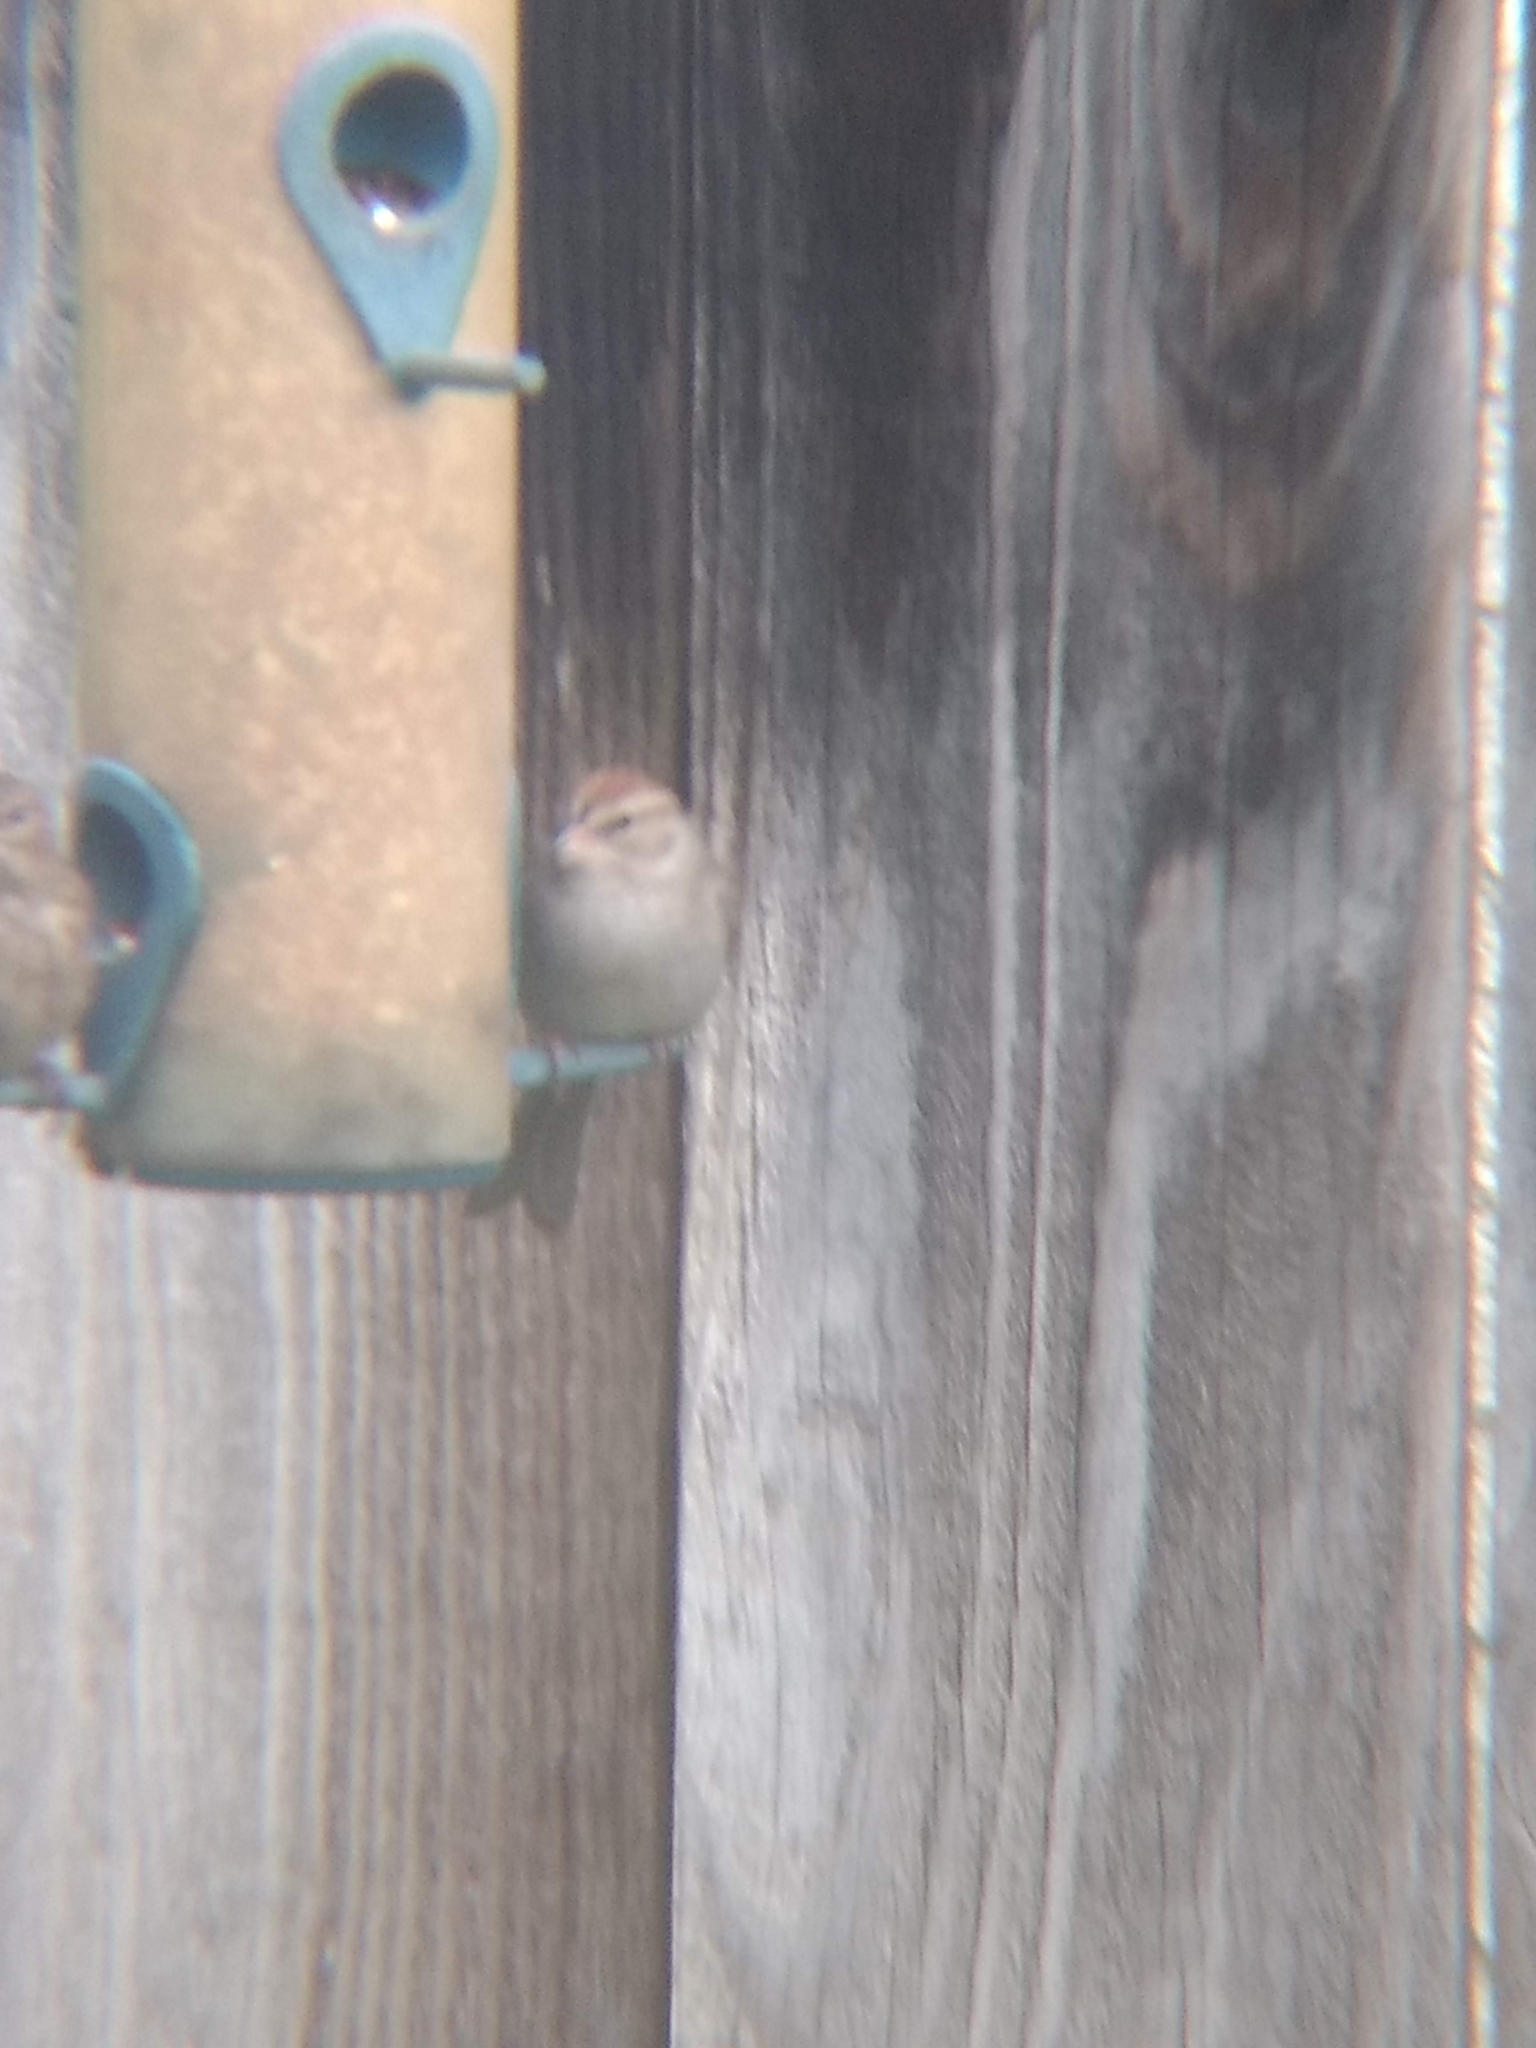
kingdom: Animalia
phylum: Chordata
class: Aves
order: Passeriformes
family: Passerellidae
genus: Spizella
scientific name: Spizella passerina
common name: Chipping sparrow
